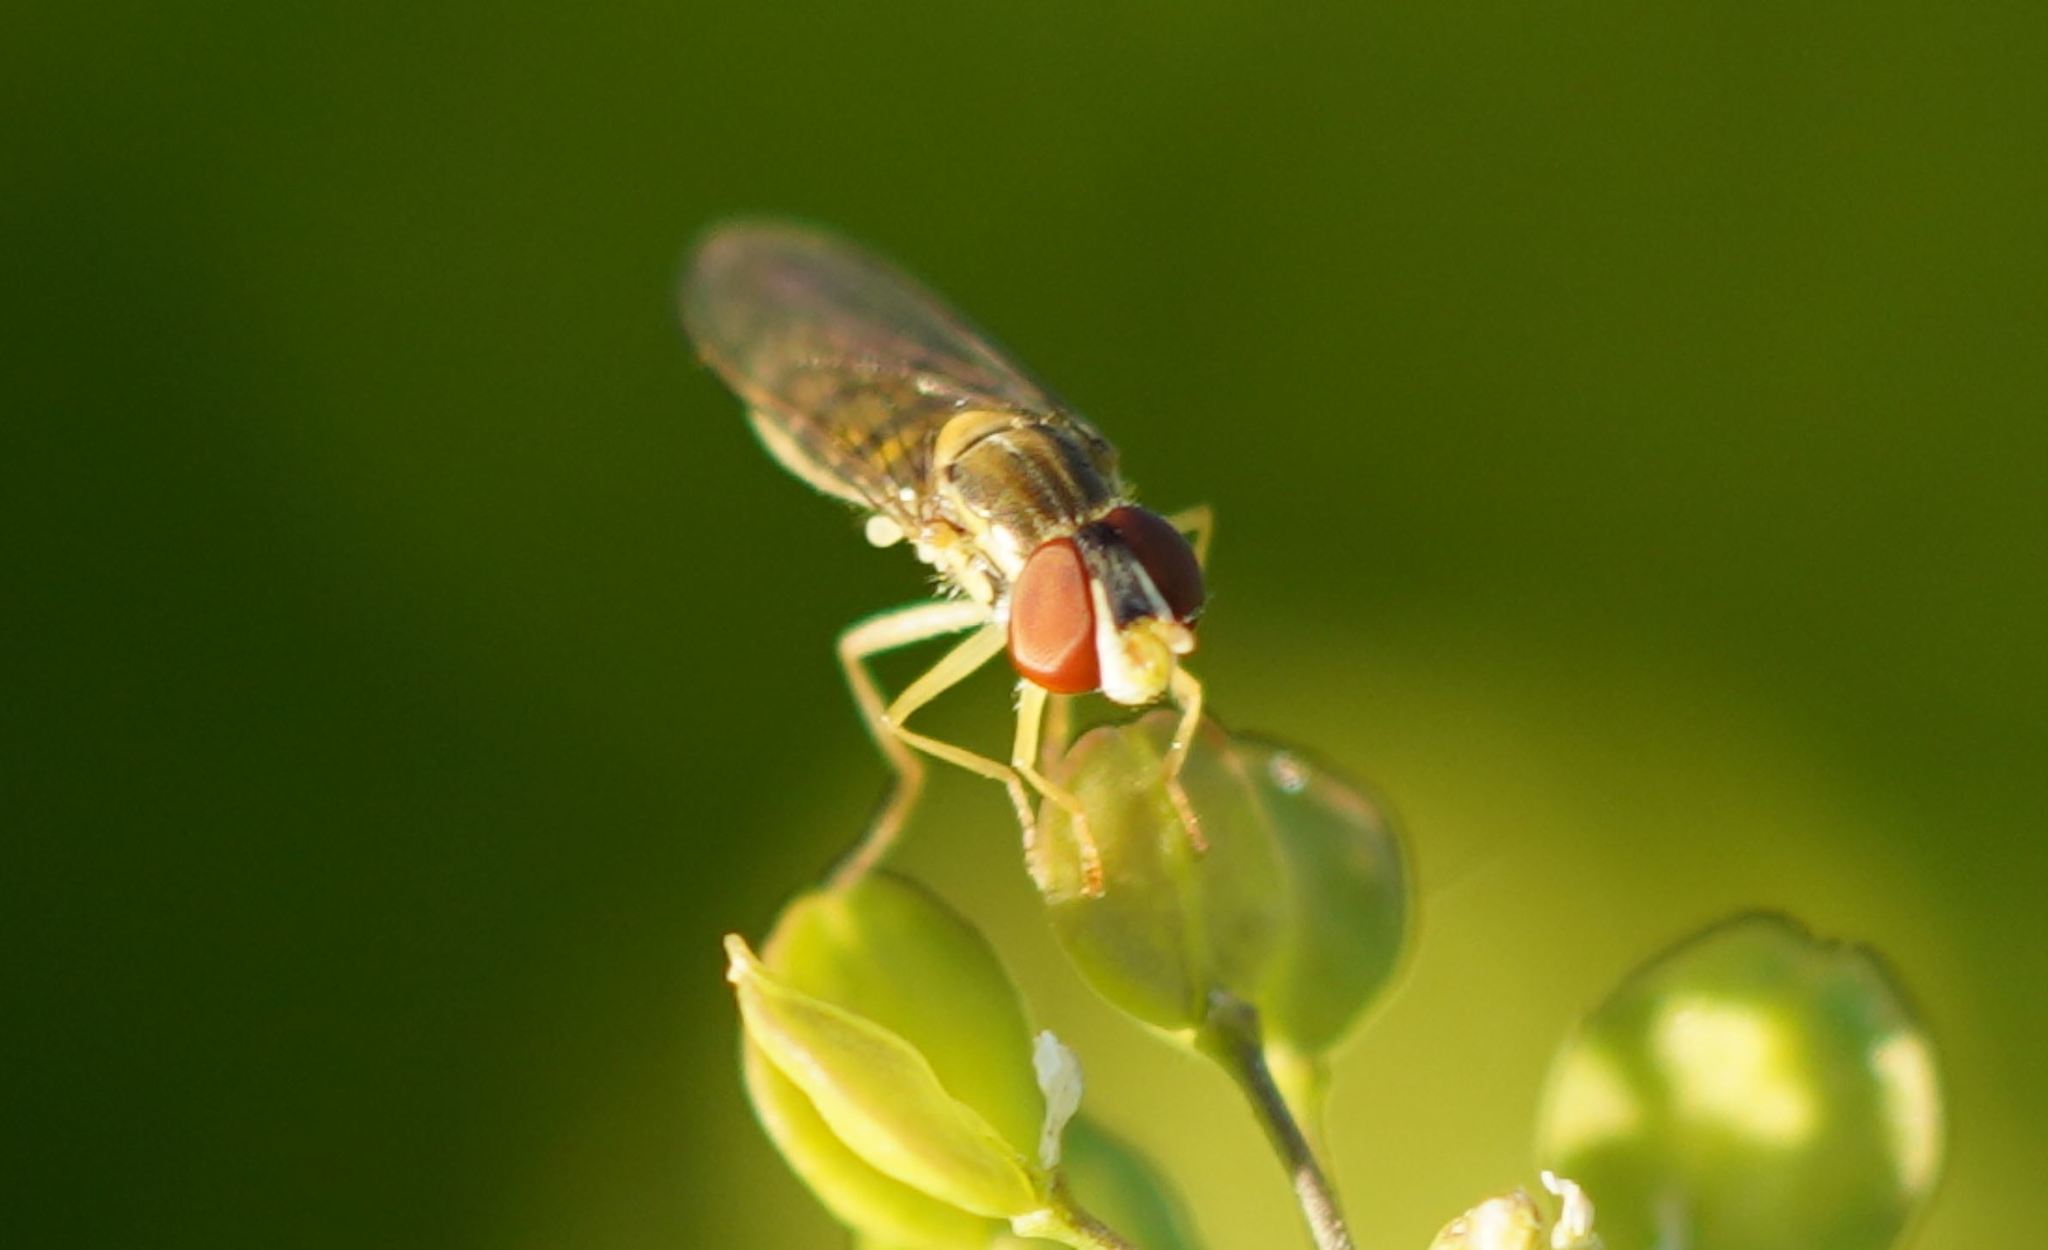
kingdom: Animalia
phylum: Arthropoda
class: Insecta
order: Diptera
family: Syrphidae
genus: Toxomerus
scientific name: Toxomerus marginatus
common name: Syrphid fly
